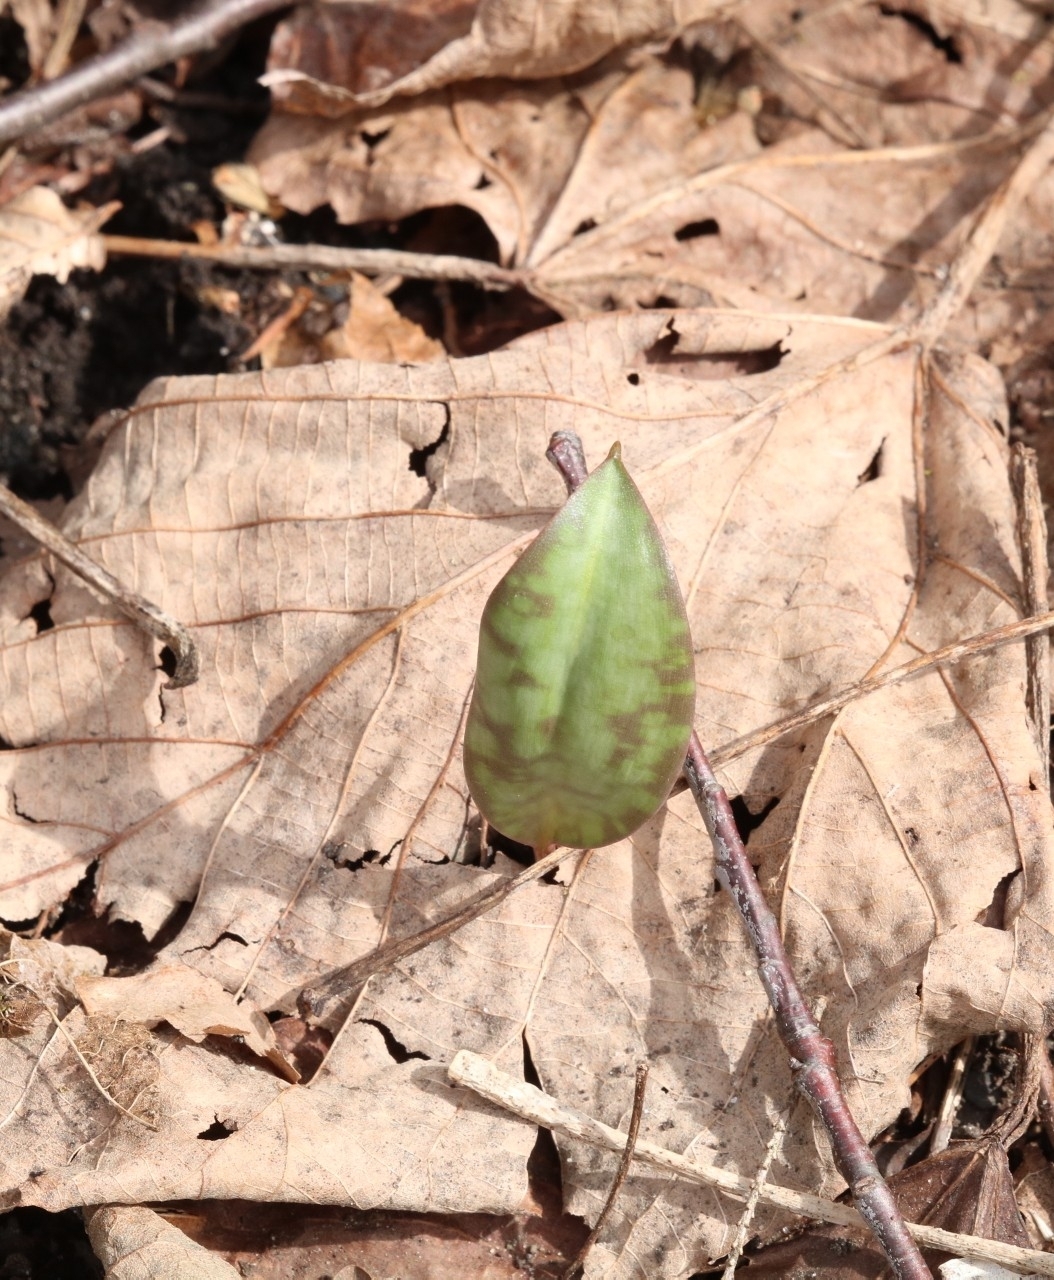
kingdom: Plantae
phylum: Tracheophyta
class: Liliopsida
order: Liliales
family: Liliaceae
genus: Erythronium
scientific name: Erythronium americanum
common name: Yellow adder's-tongue
